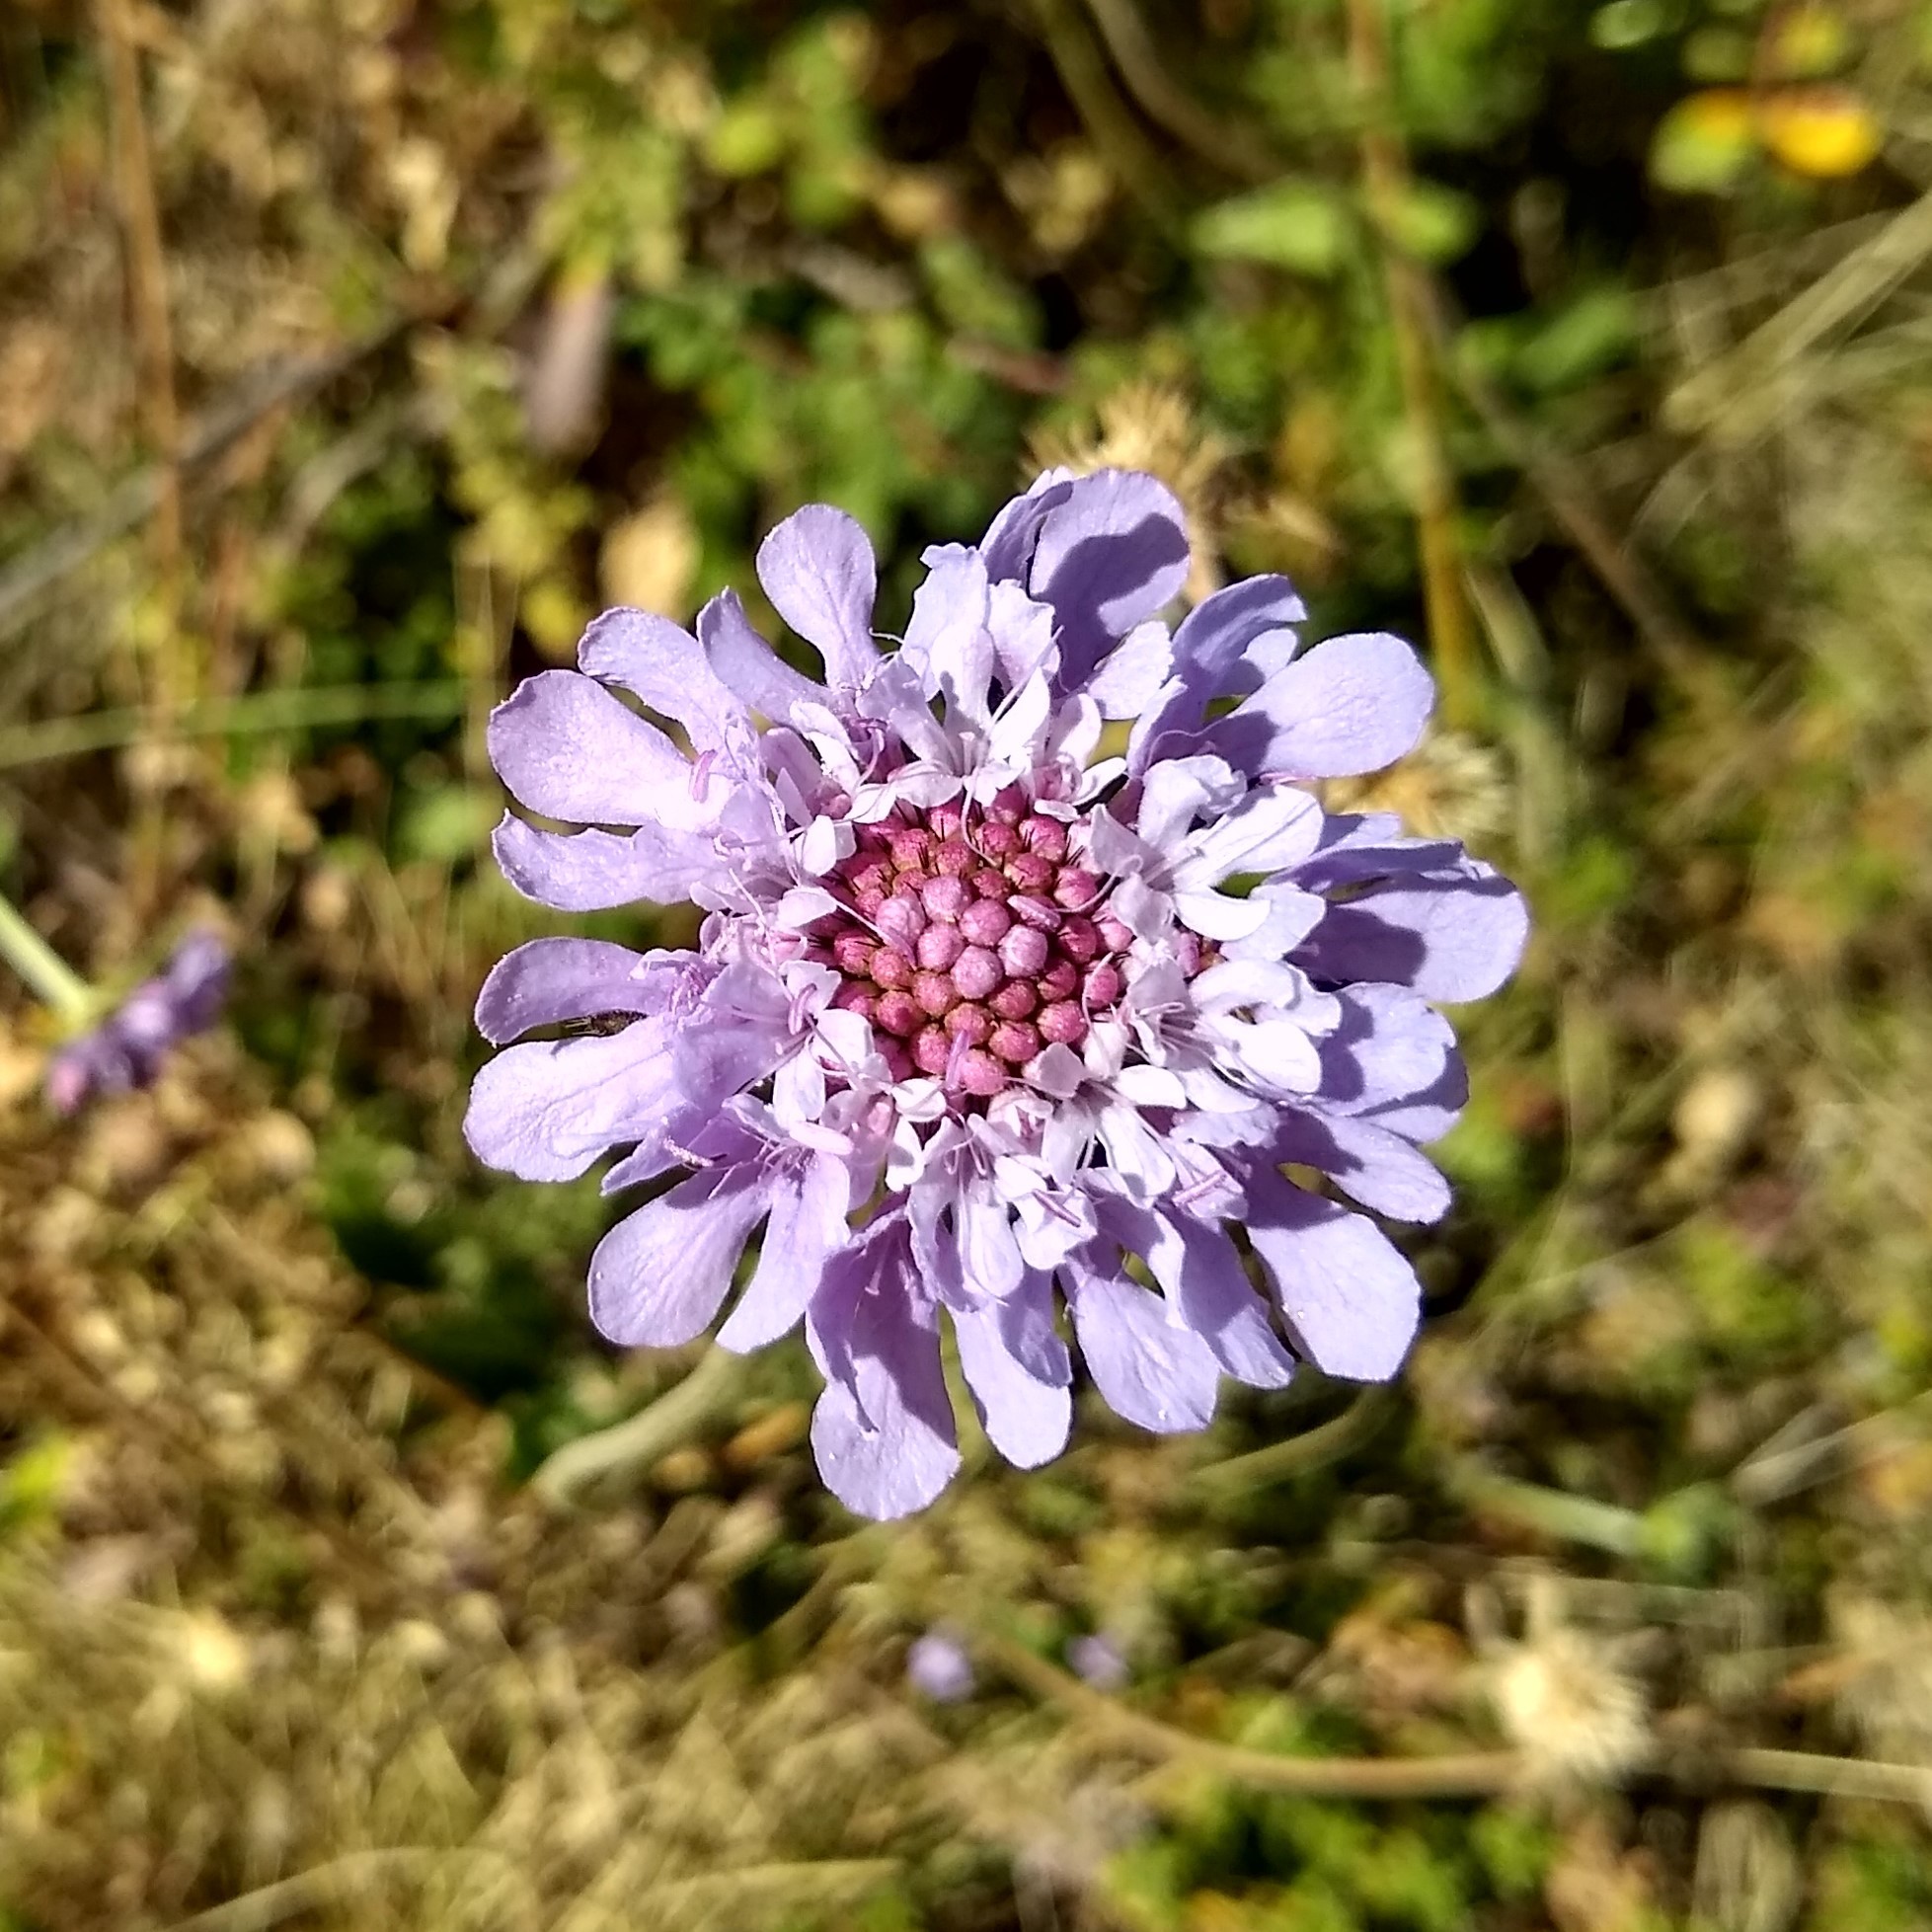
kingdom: Plantae
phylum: Tracheophyta
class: Magnoliopsida
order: Dipsacales
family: Caprifoliaceae
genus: Scabiosa
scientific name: Scabiosa columbaria
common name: Small scabious
